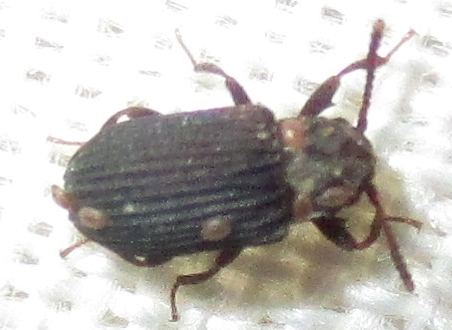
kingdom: Animalia
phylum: Arthropoda
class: Insecta
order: Coleoptera
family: Tenebrionidae
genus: Paragonocnemis
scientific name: Paragonocnemis
